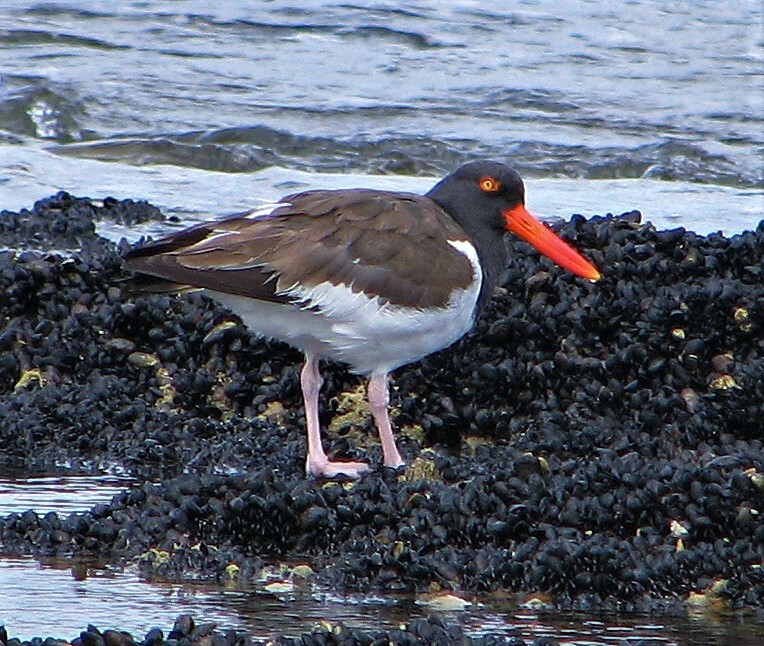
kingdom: Animalia
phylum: Chordata
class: Aves
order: Charadriiformes
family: Haematopodidae
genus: Haematopus
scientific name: Haematopus palliatus
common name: American oystercatcher
